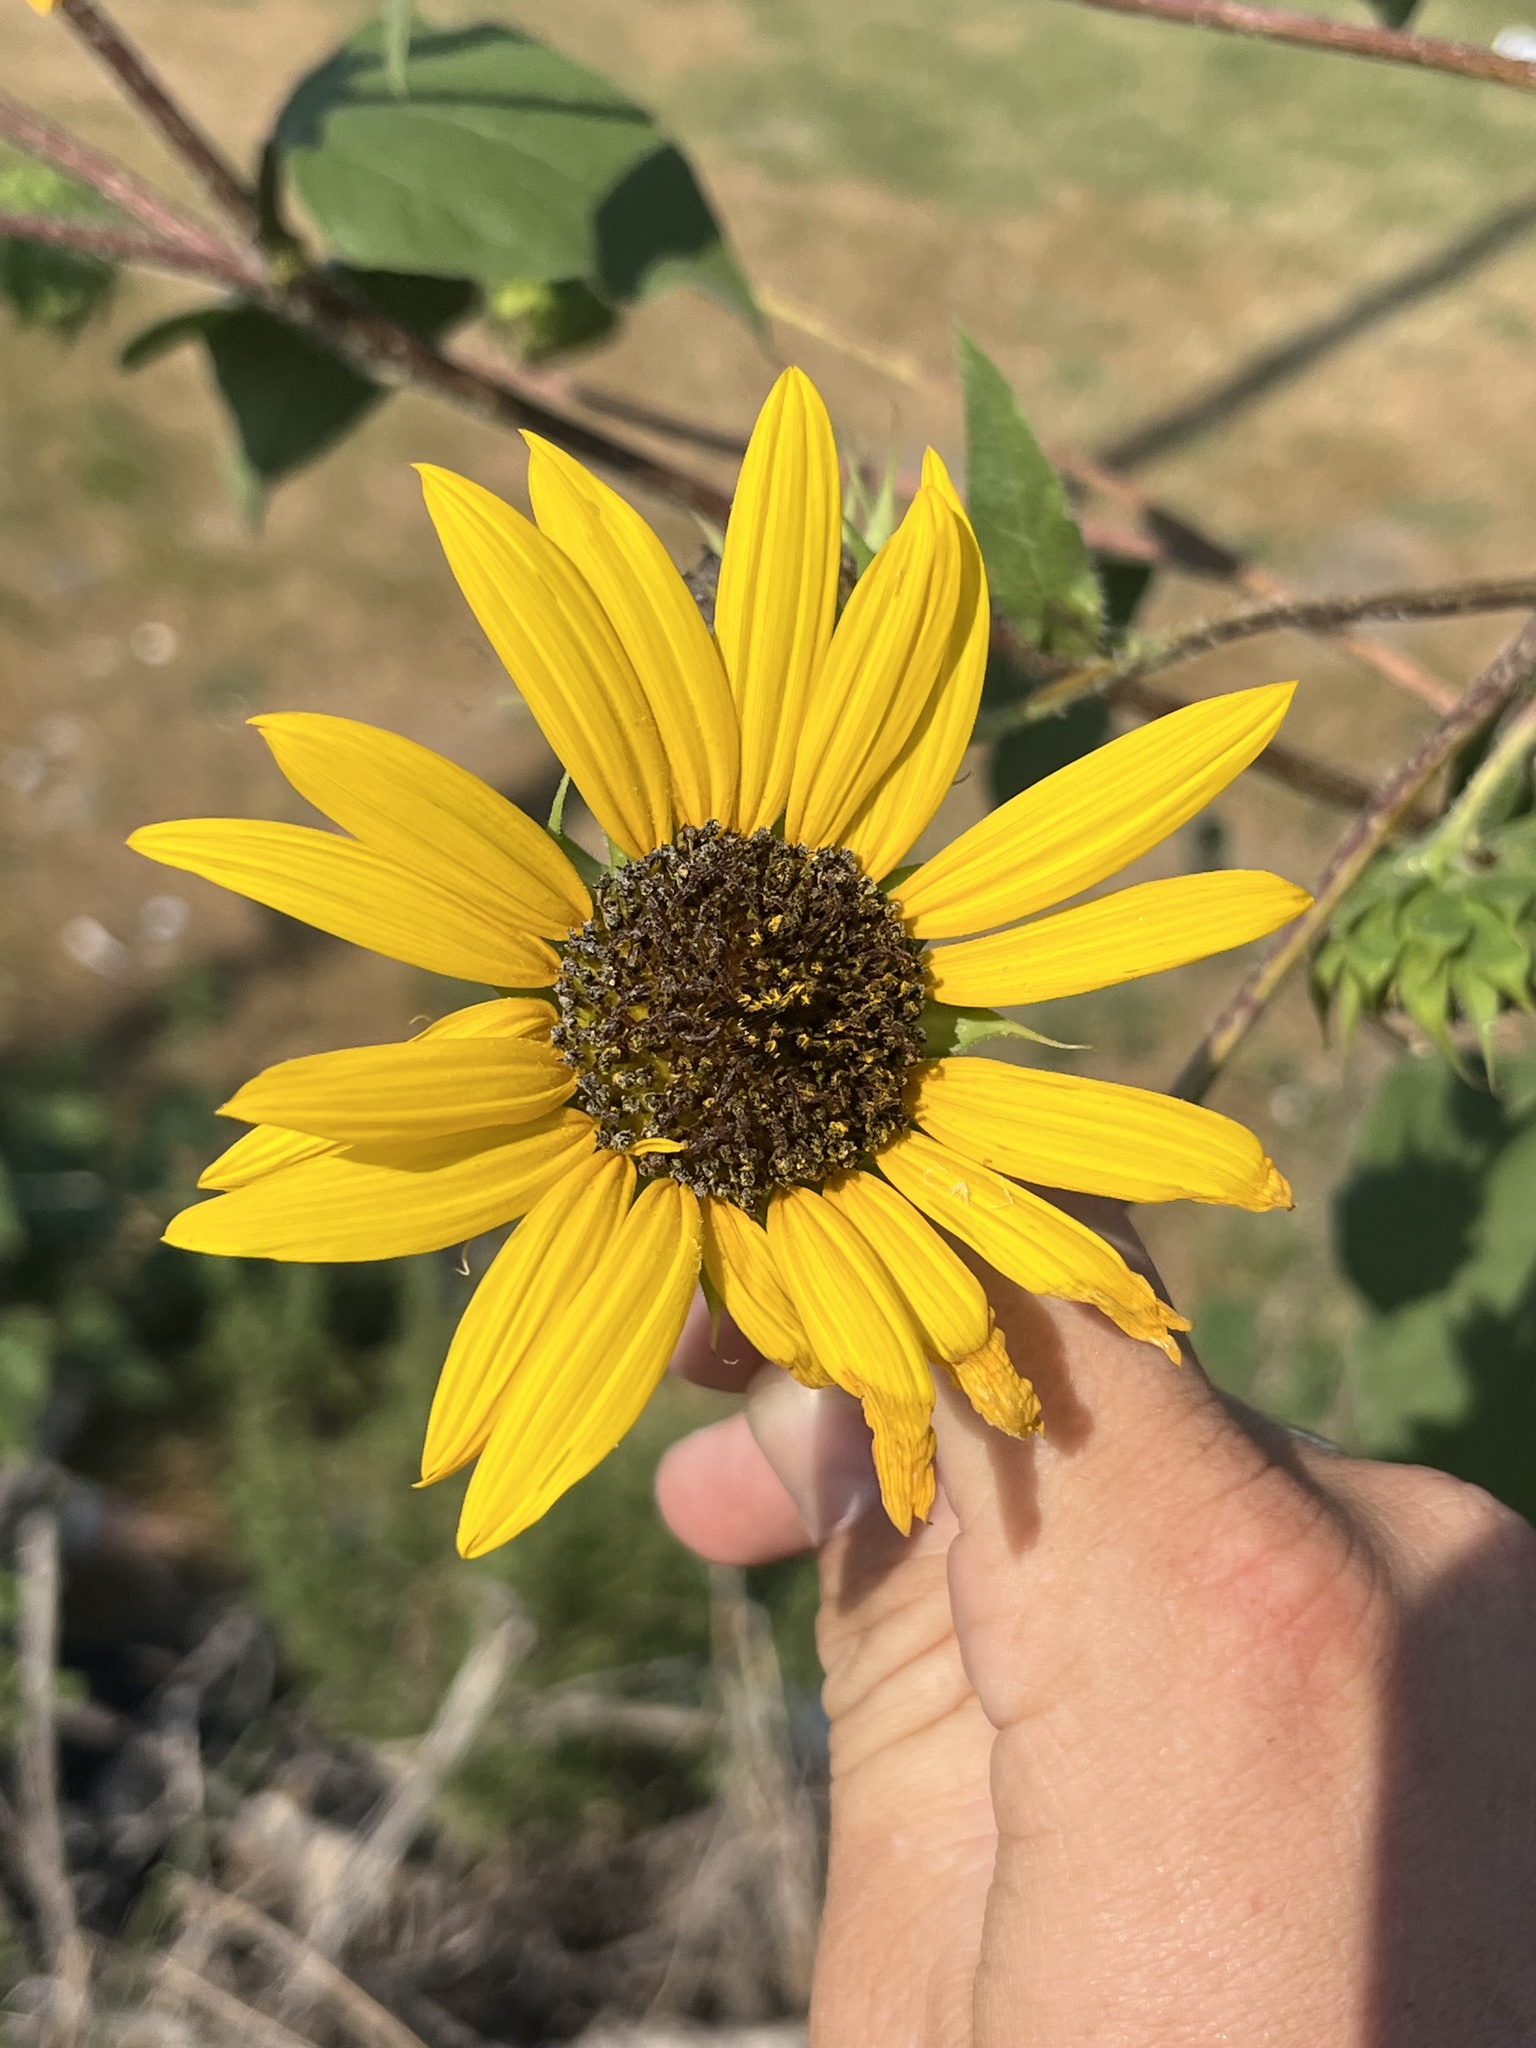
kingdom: Plantae
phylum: Tracheophyta
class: Magnoliopsida
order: Asterales
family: Asteraceae
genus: Helianthus
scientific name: Helianthus annuus
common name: Sunflower
